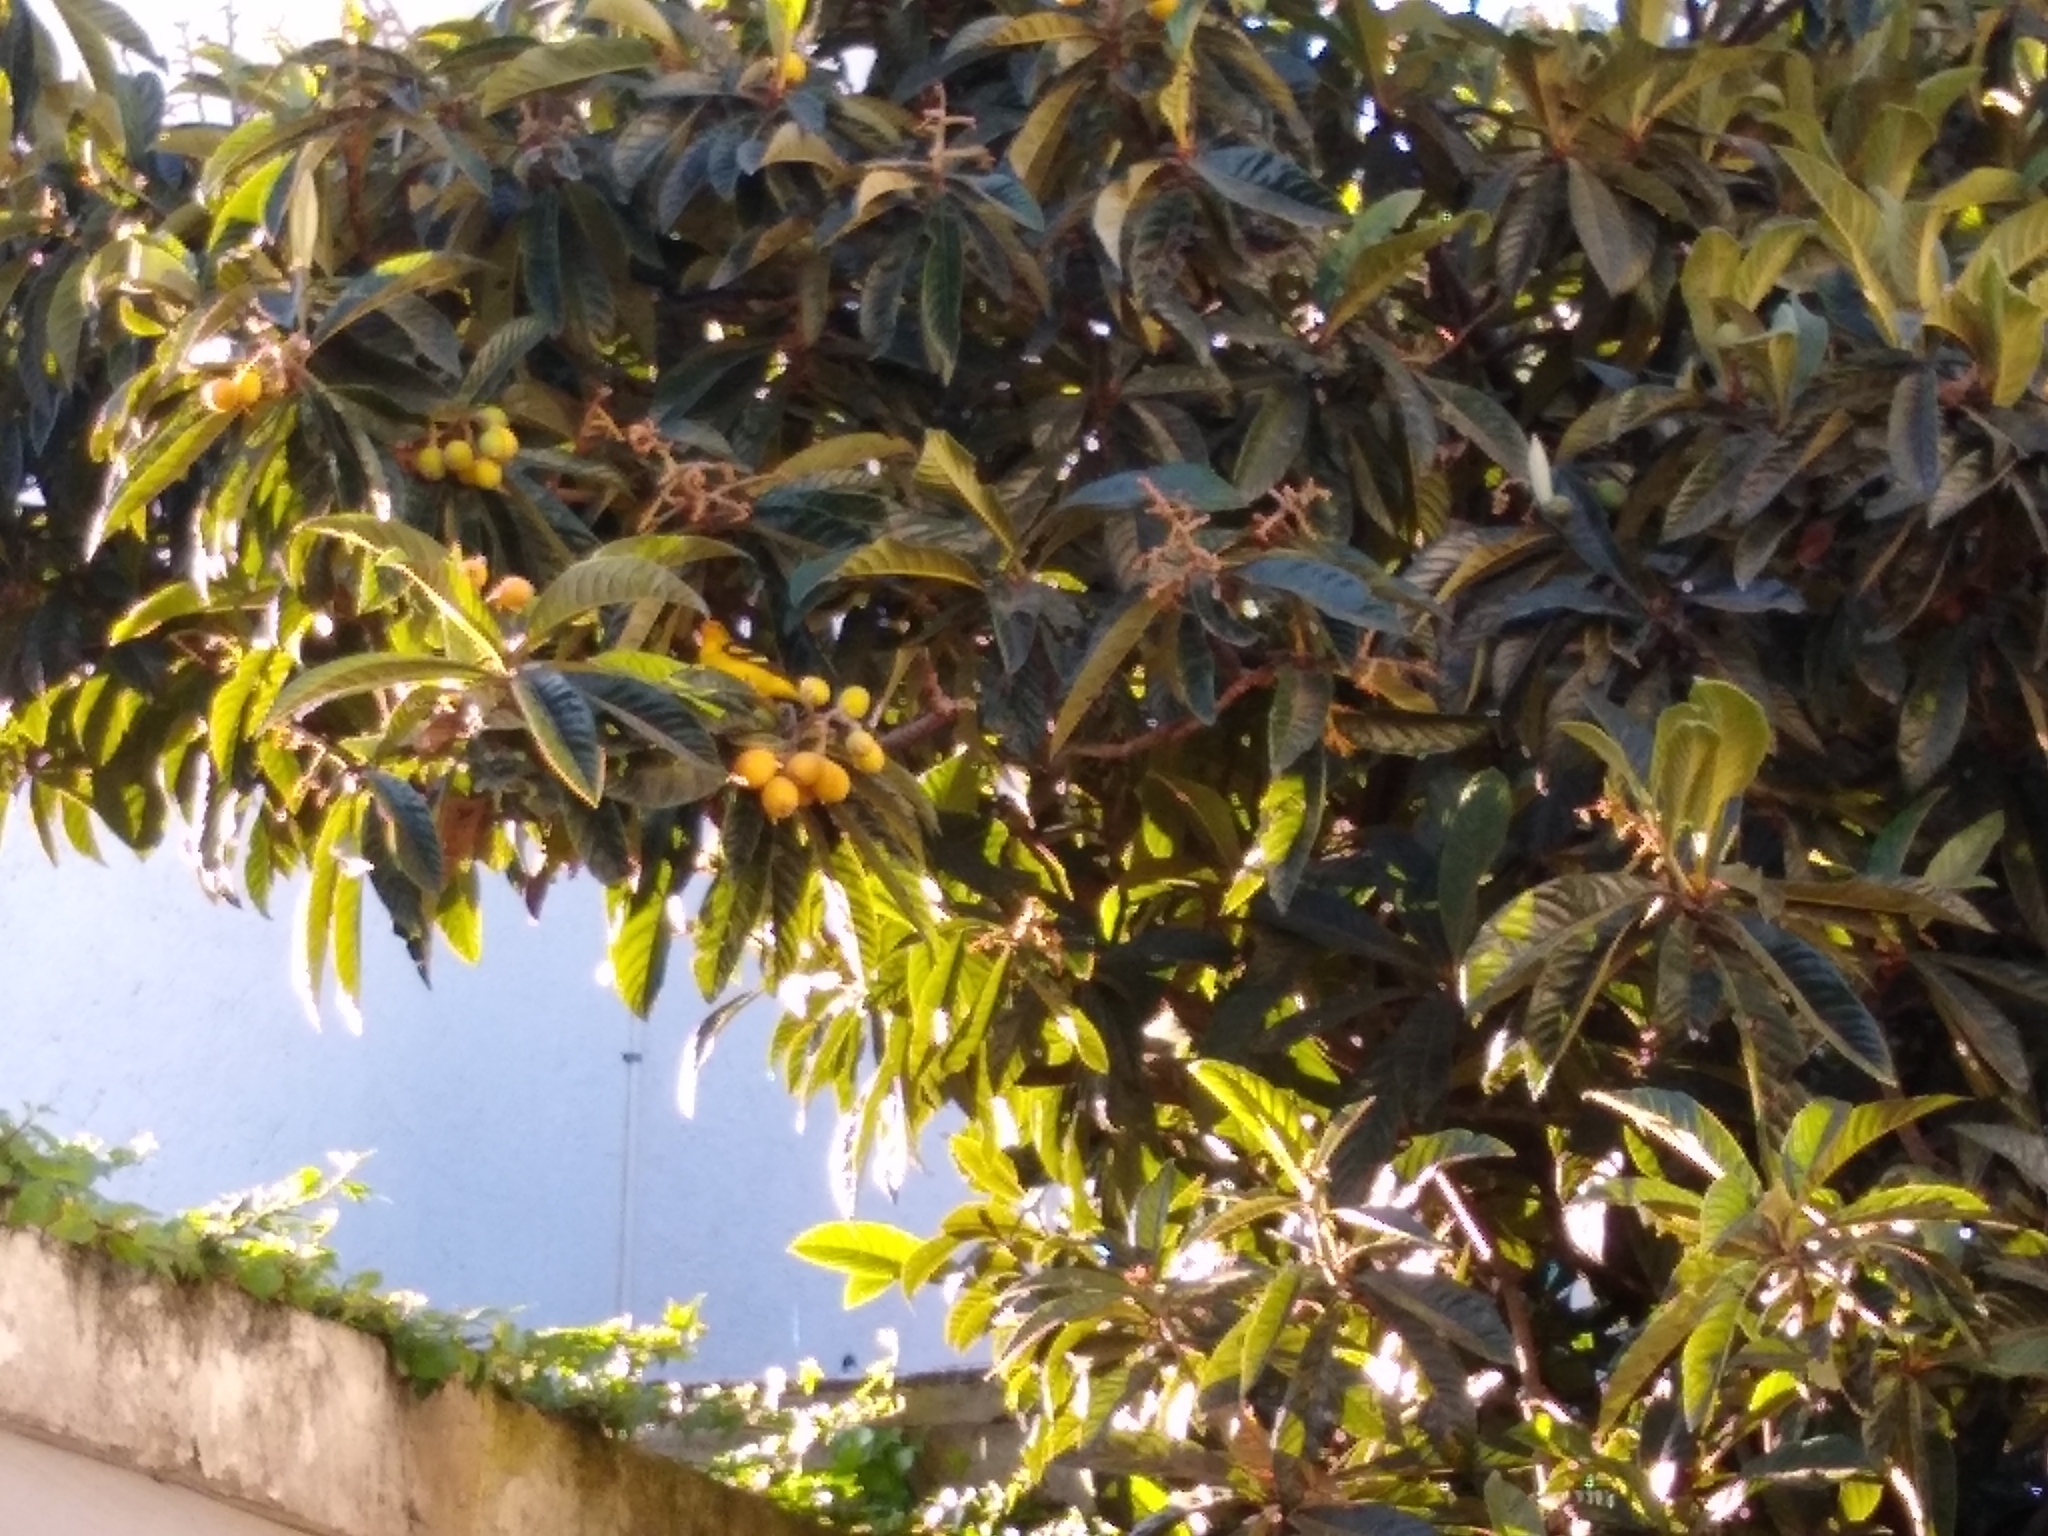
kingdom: Animalia
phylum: Chordata
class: Aves
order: Passeriformes
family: Cardinalidae
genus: Piranga
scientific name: Piranga ludoviciana
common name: Western tanager
